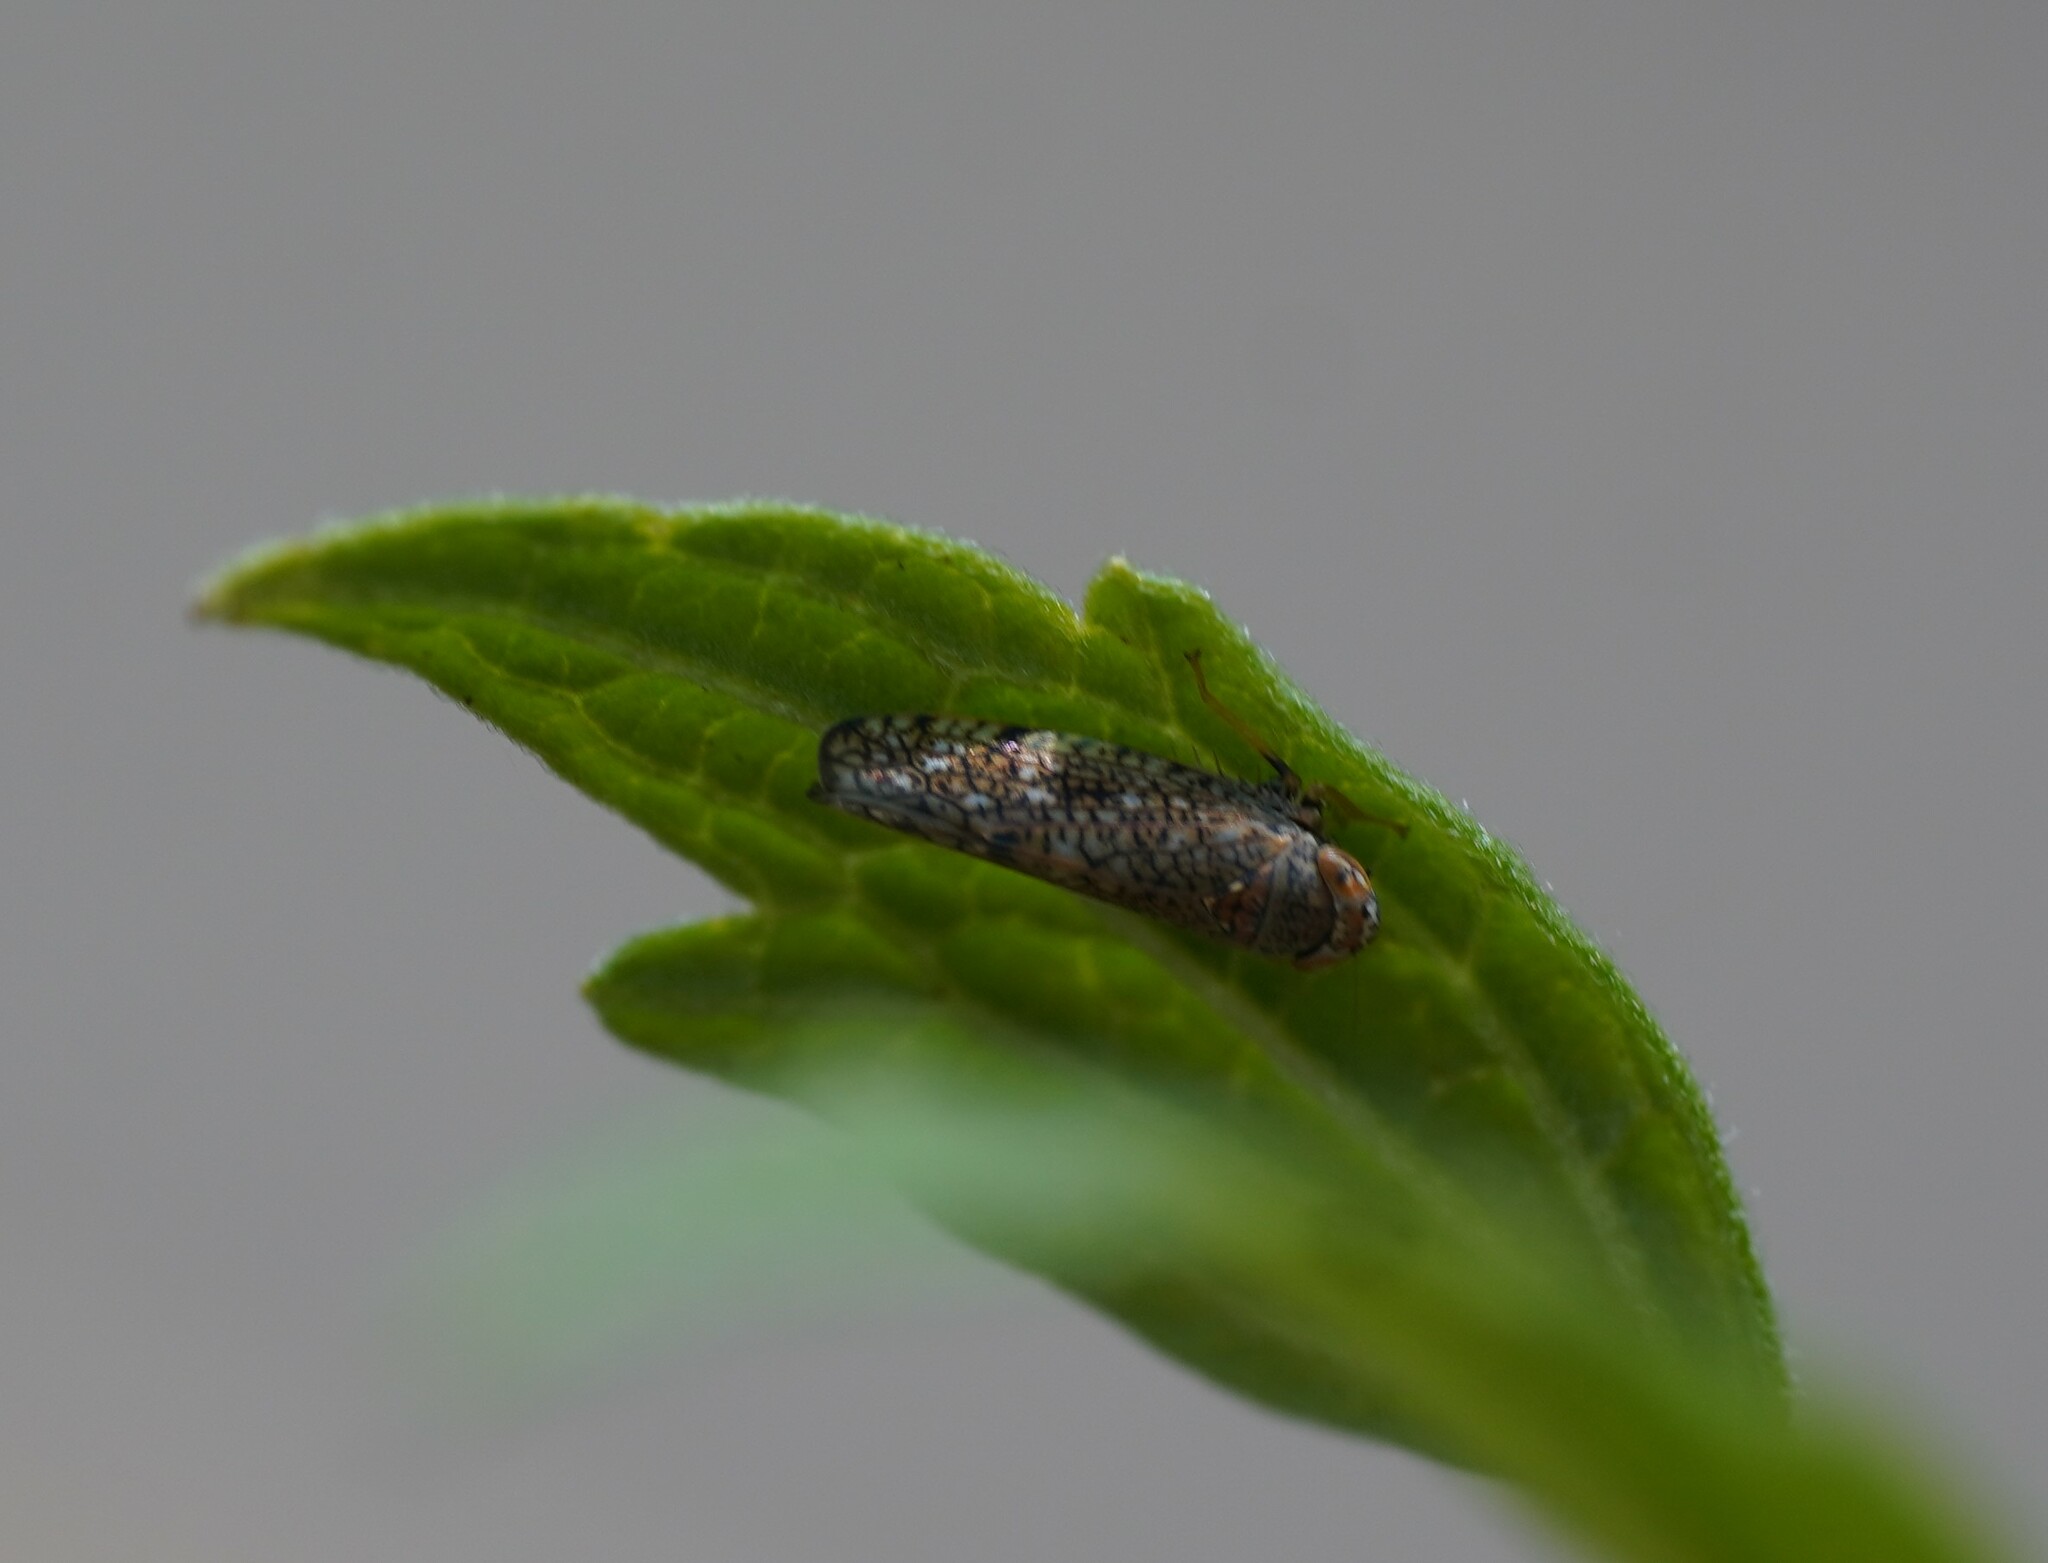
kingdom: Animalia
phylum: Arthropoda
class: Insecta
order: Hemiptera
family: Cicadellidae
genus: Orientus
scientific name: Orientus ishidae
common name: Japanese leafhopper
